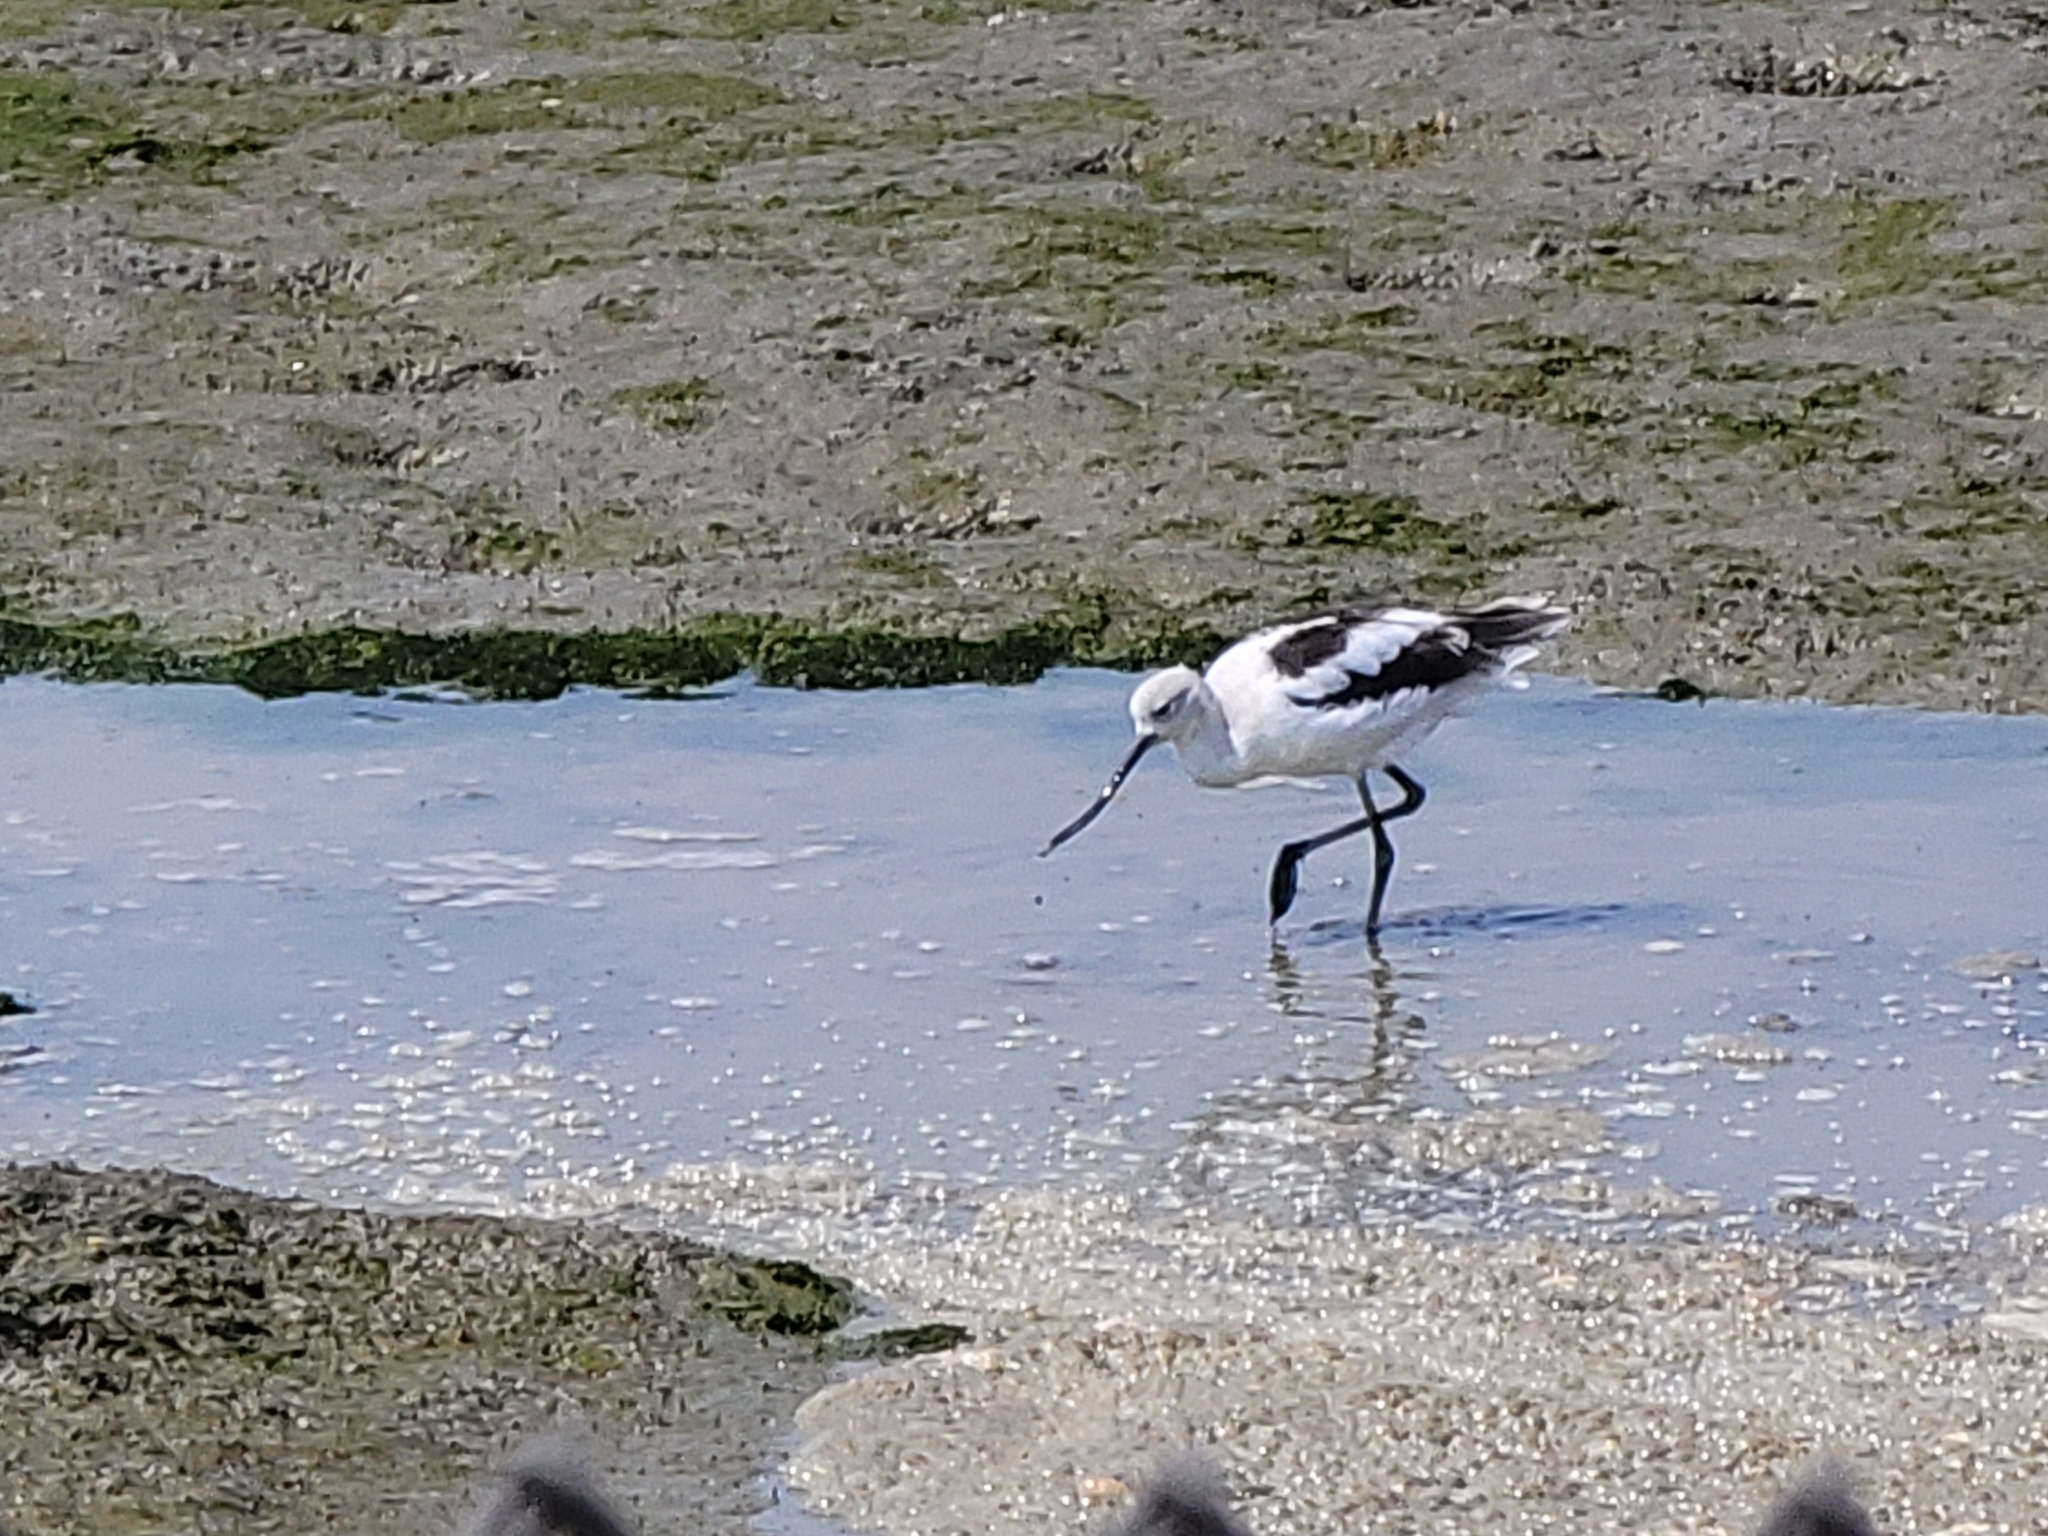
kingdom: Animalia
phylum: Chordata
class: Aves
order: Charadriiformes
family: Recurvirostridae
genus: Recurvirostra
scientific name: Recurvirostra americana
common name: American avocet
